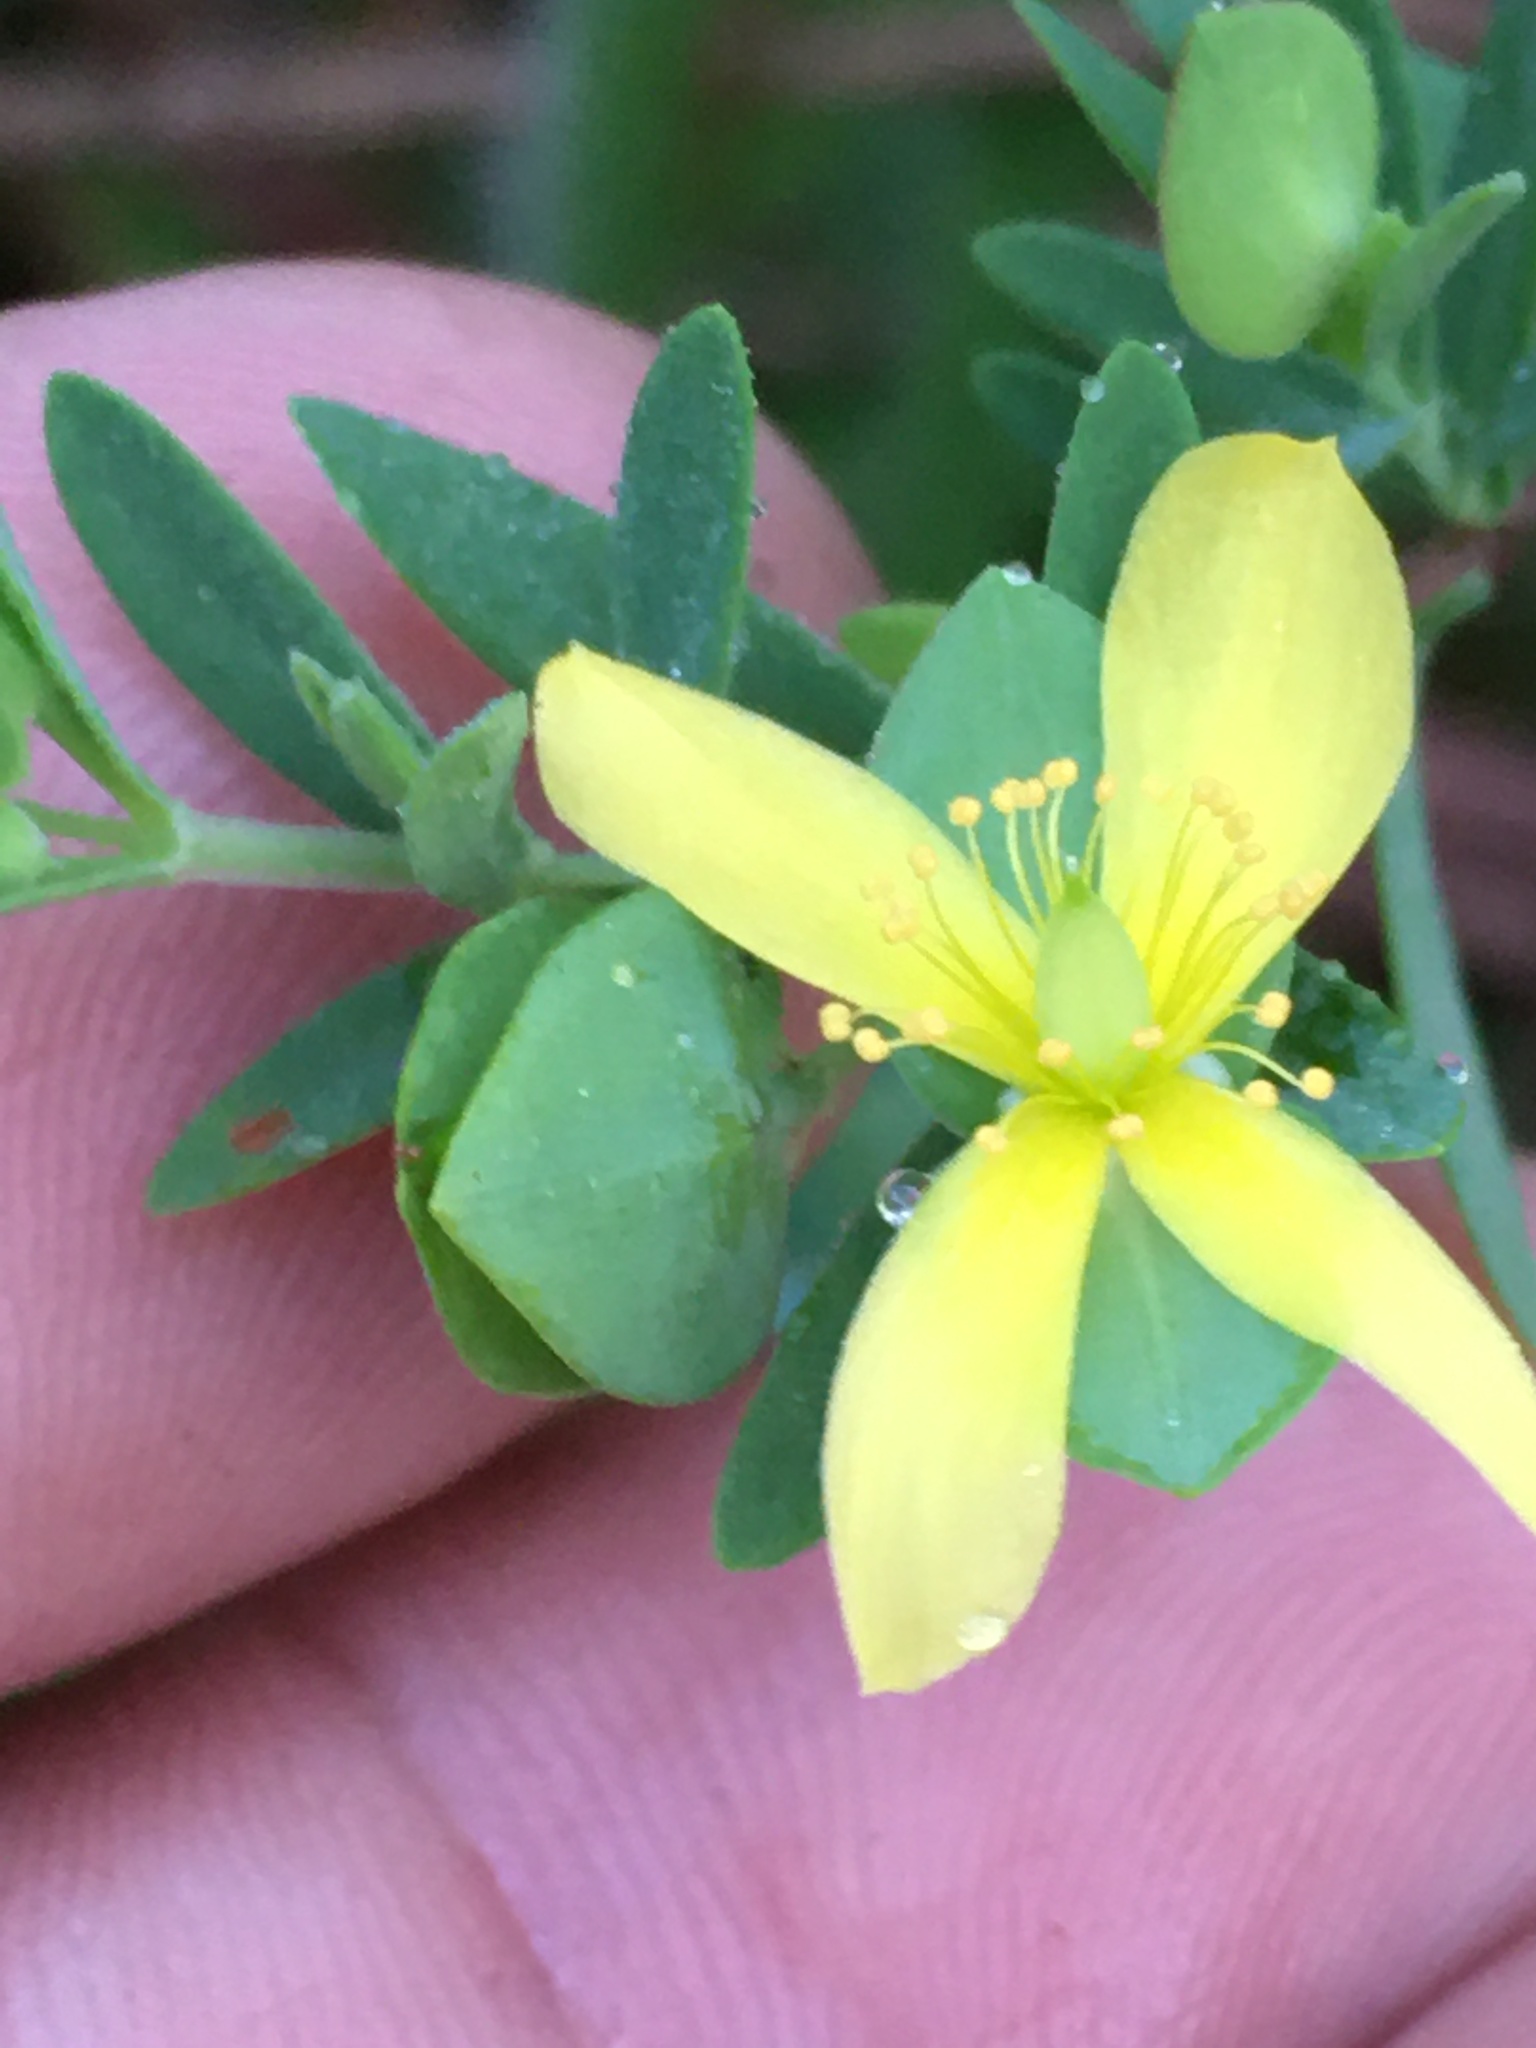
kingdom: Plantae
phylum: Tracheophyta
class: Magnoliopsida
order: Malpighiales
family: Hypericaceae
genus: Hypericum
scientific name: Hypericum hypericoides
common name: St. andrew's cross
